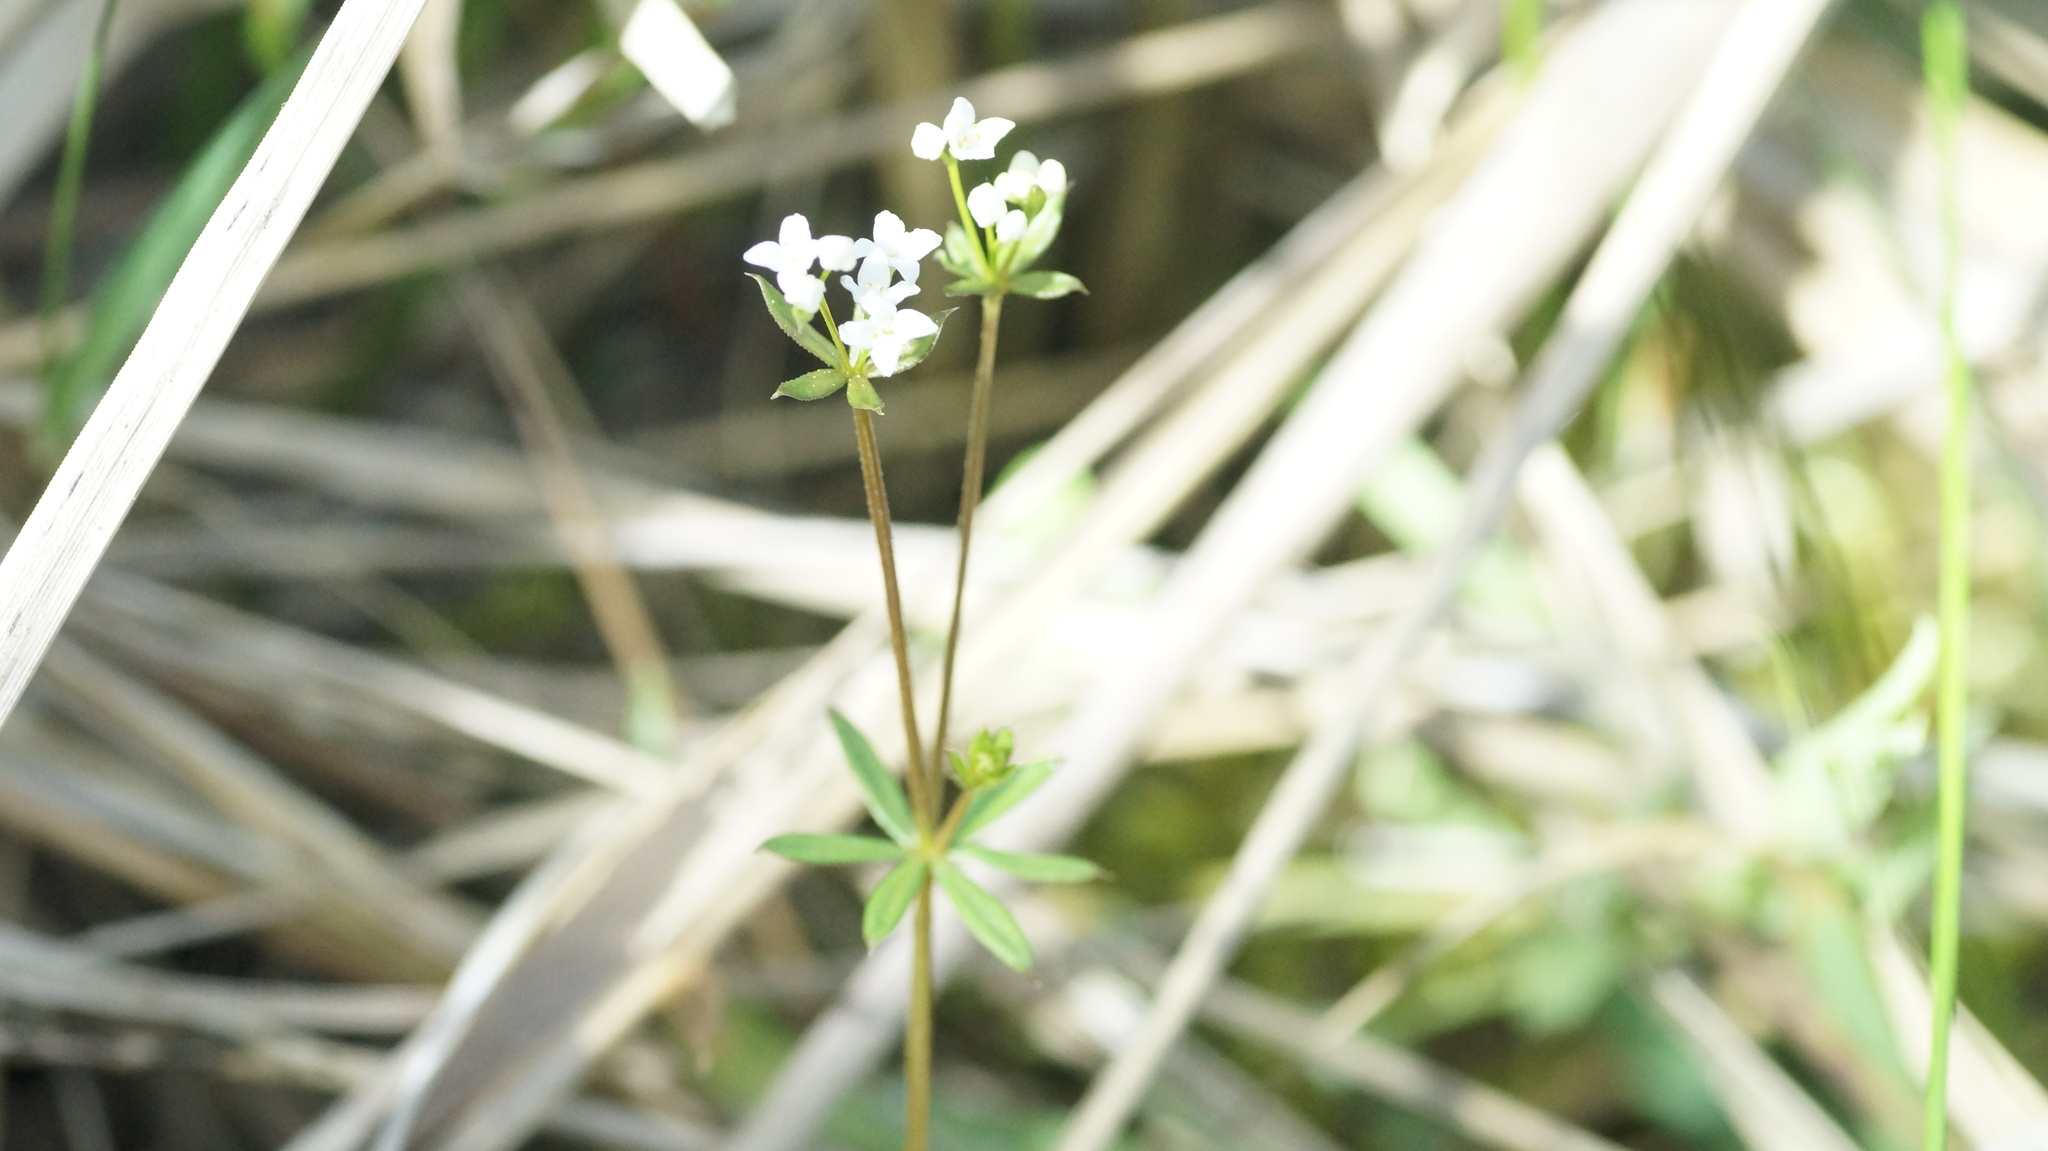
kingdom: Plantae
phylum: Tracheophyta
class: Magnoliopsida
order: Gentianales
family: Rubiaceae
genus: Galium
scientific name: Galium uliginosum
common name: Fen bedstraw
